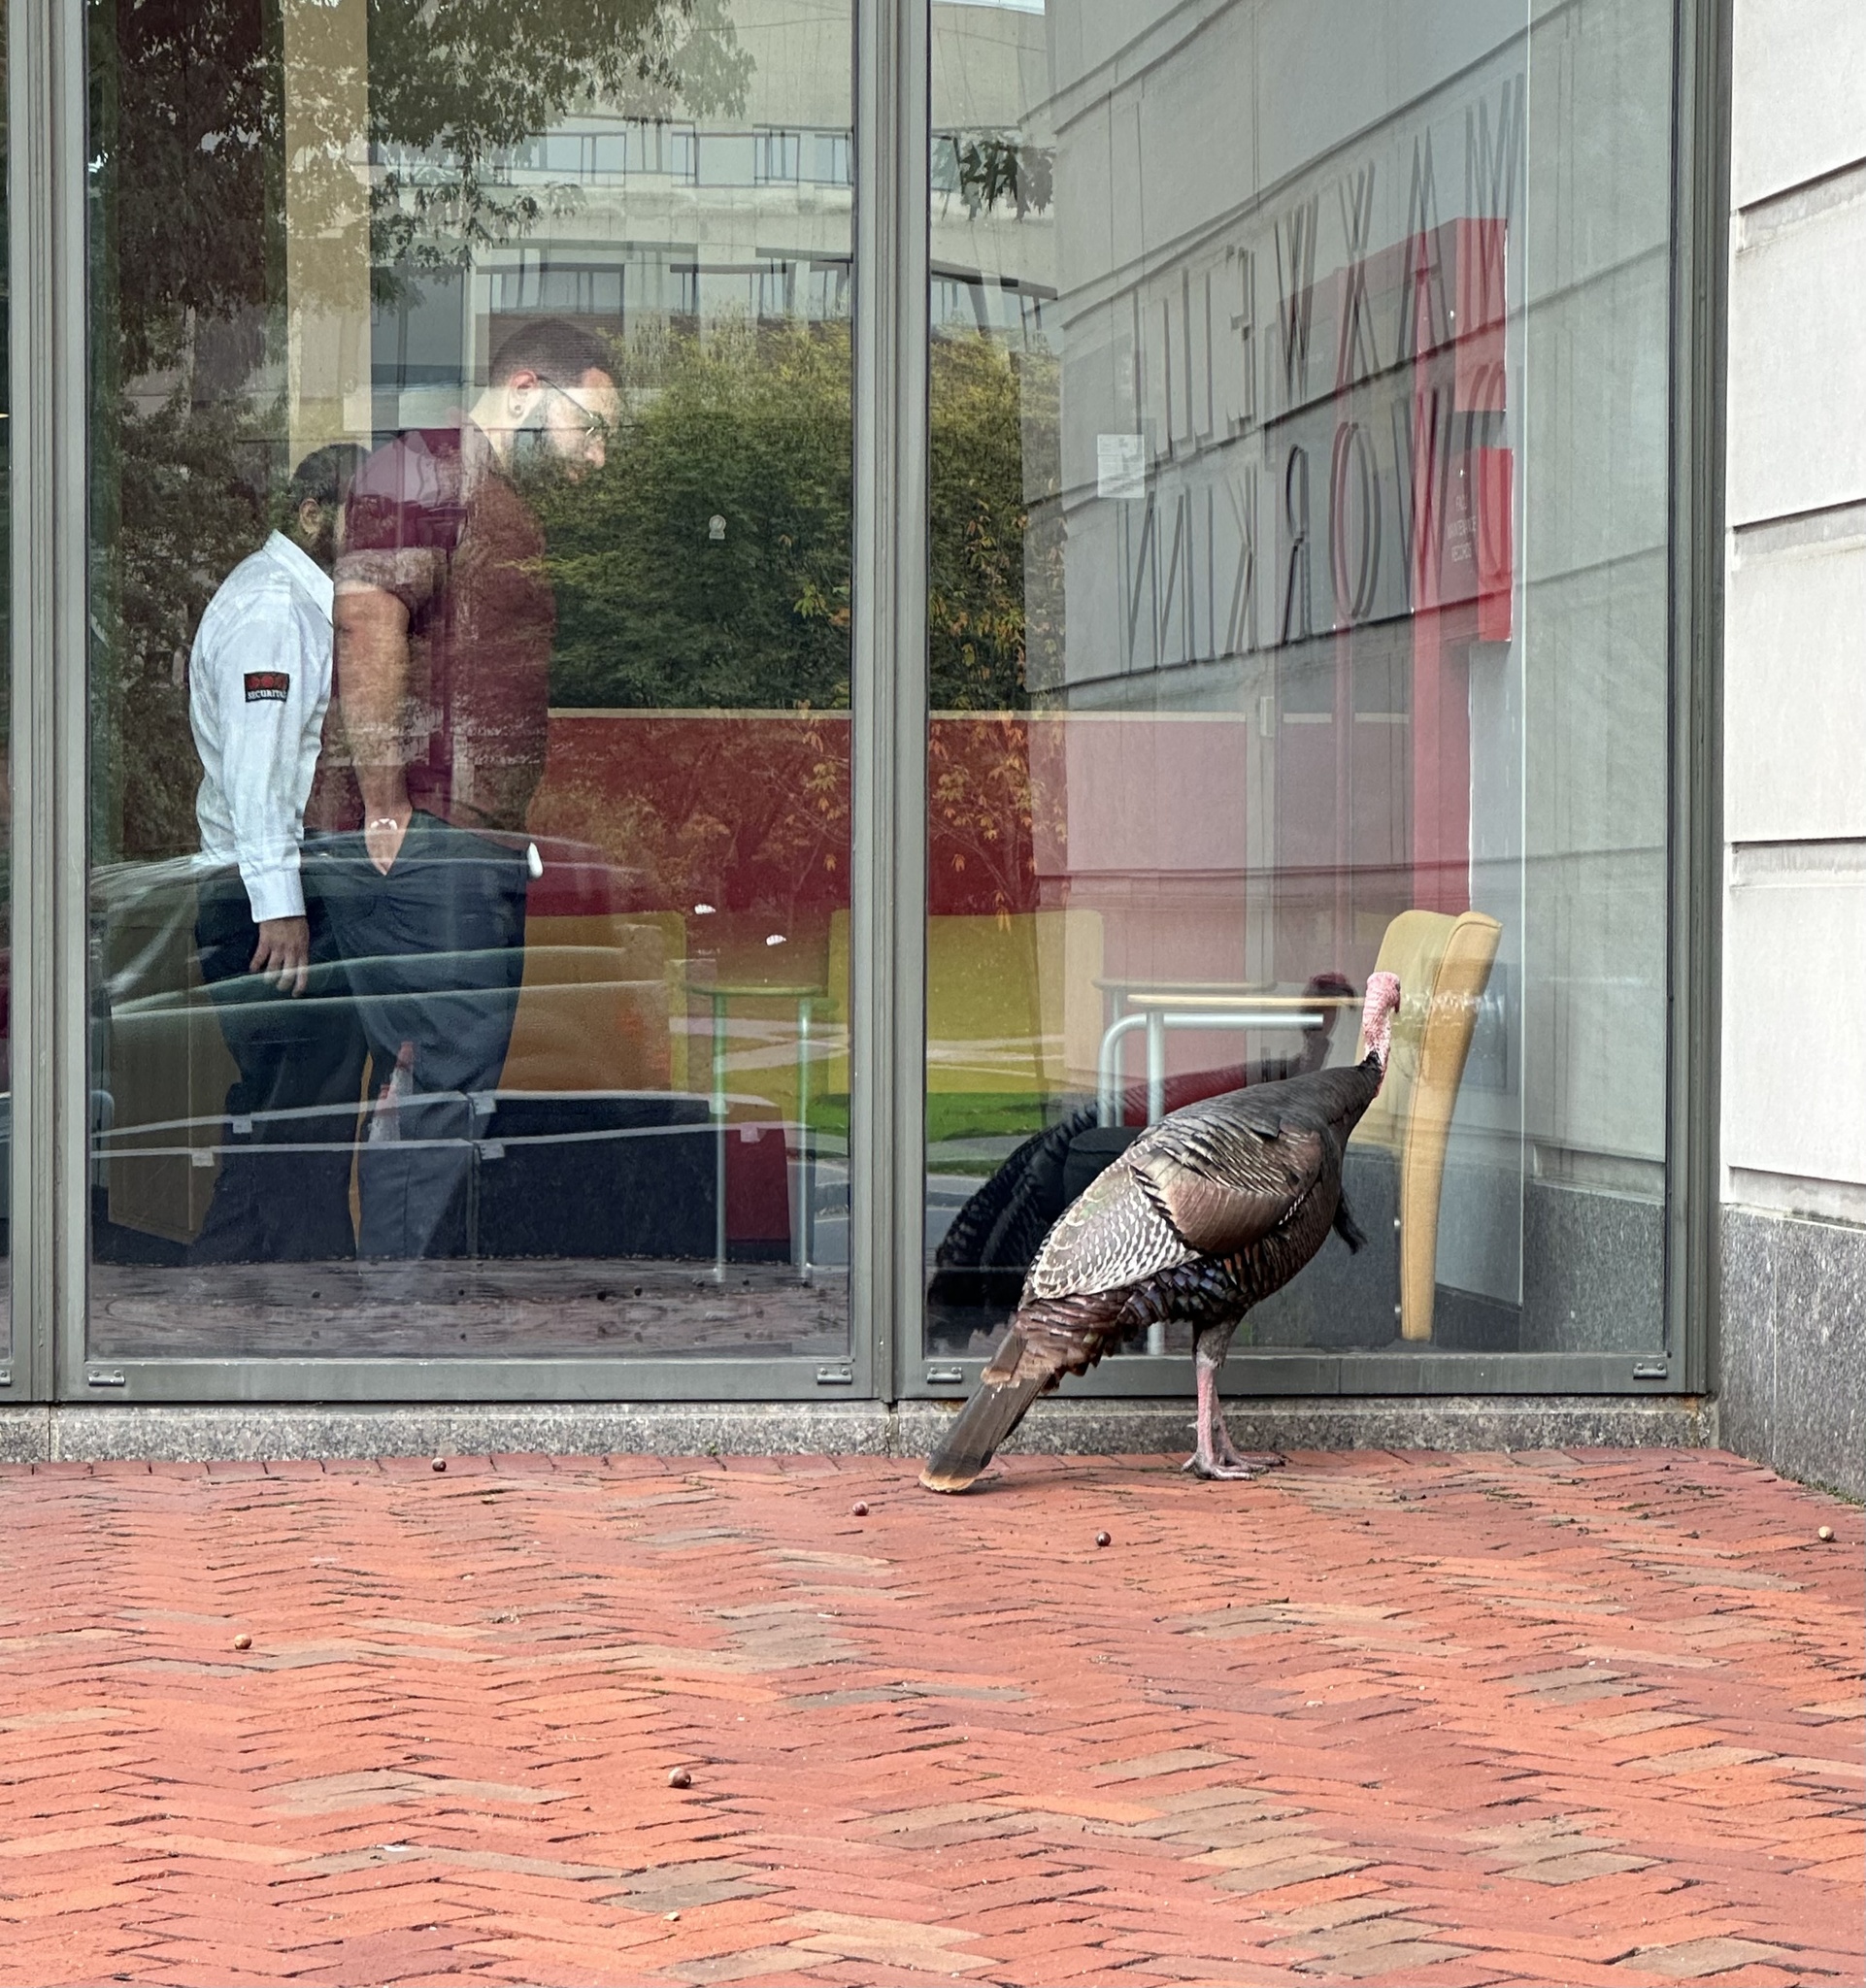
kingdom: Animalia
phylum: Chordata
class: Aves
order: Galliformes
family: Phasianidae
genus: Meleagris
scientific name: Meleagris gallopavo
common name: Wild turkey
